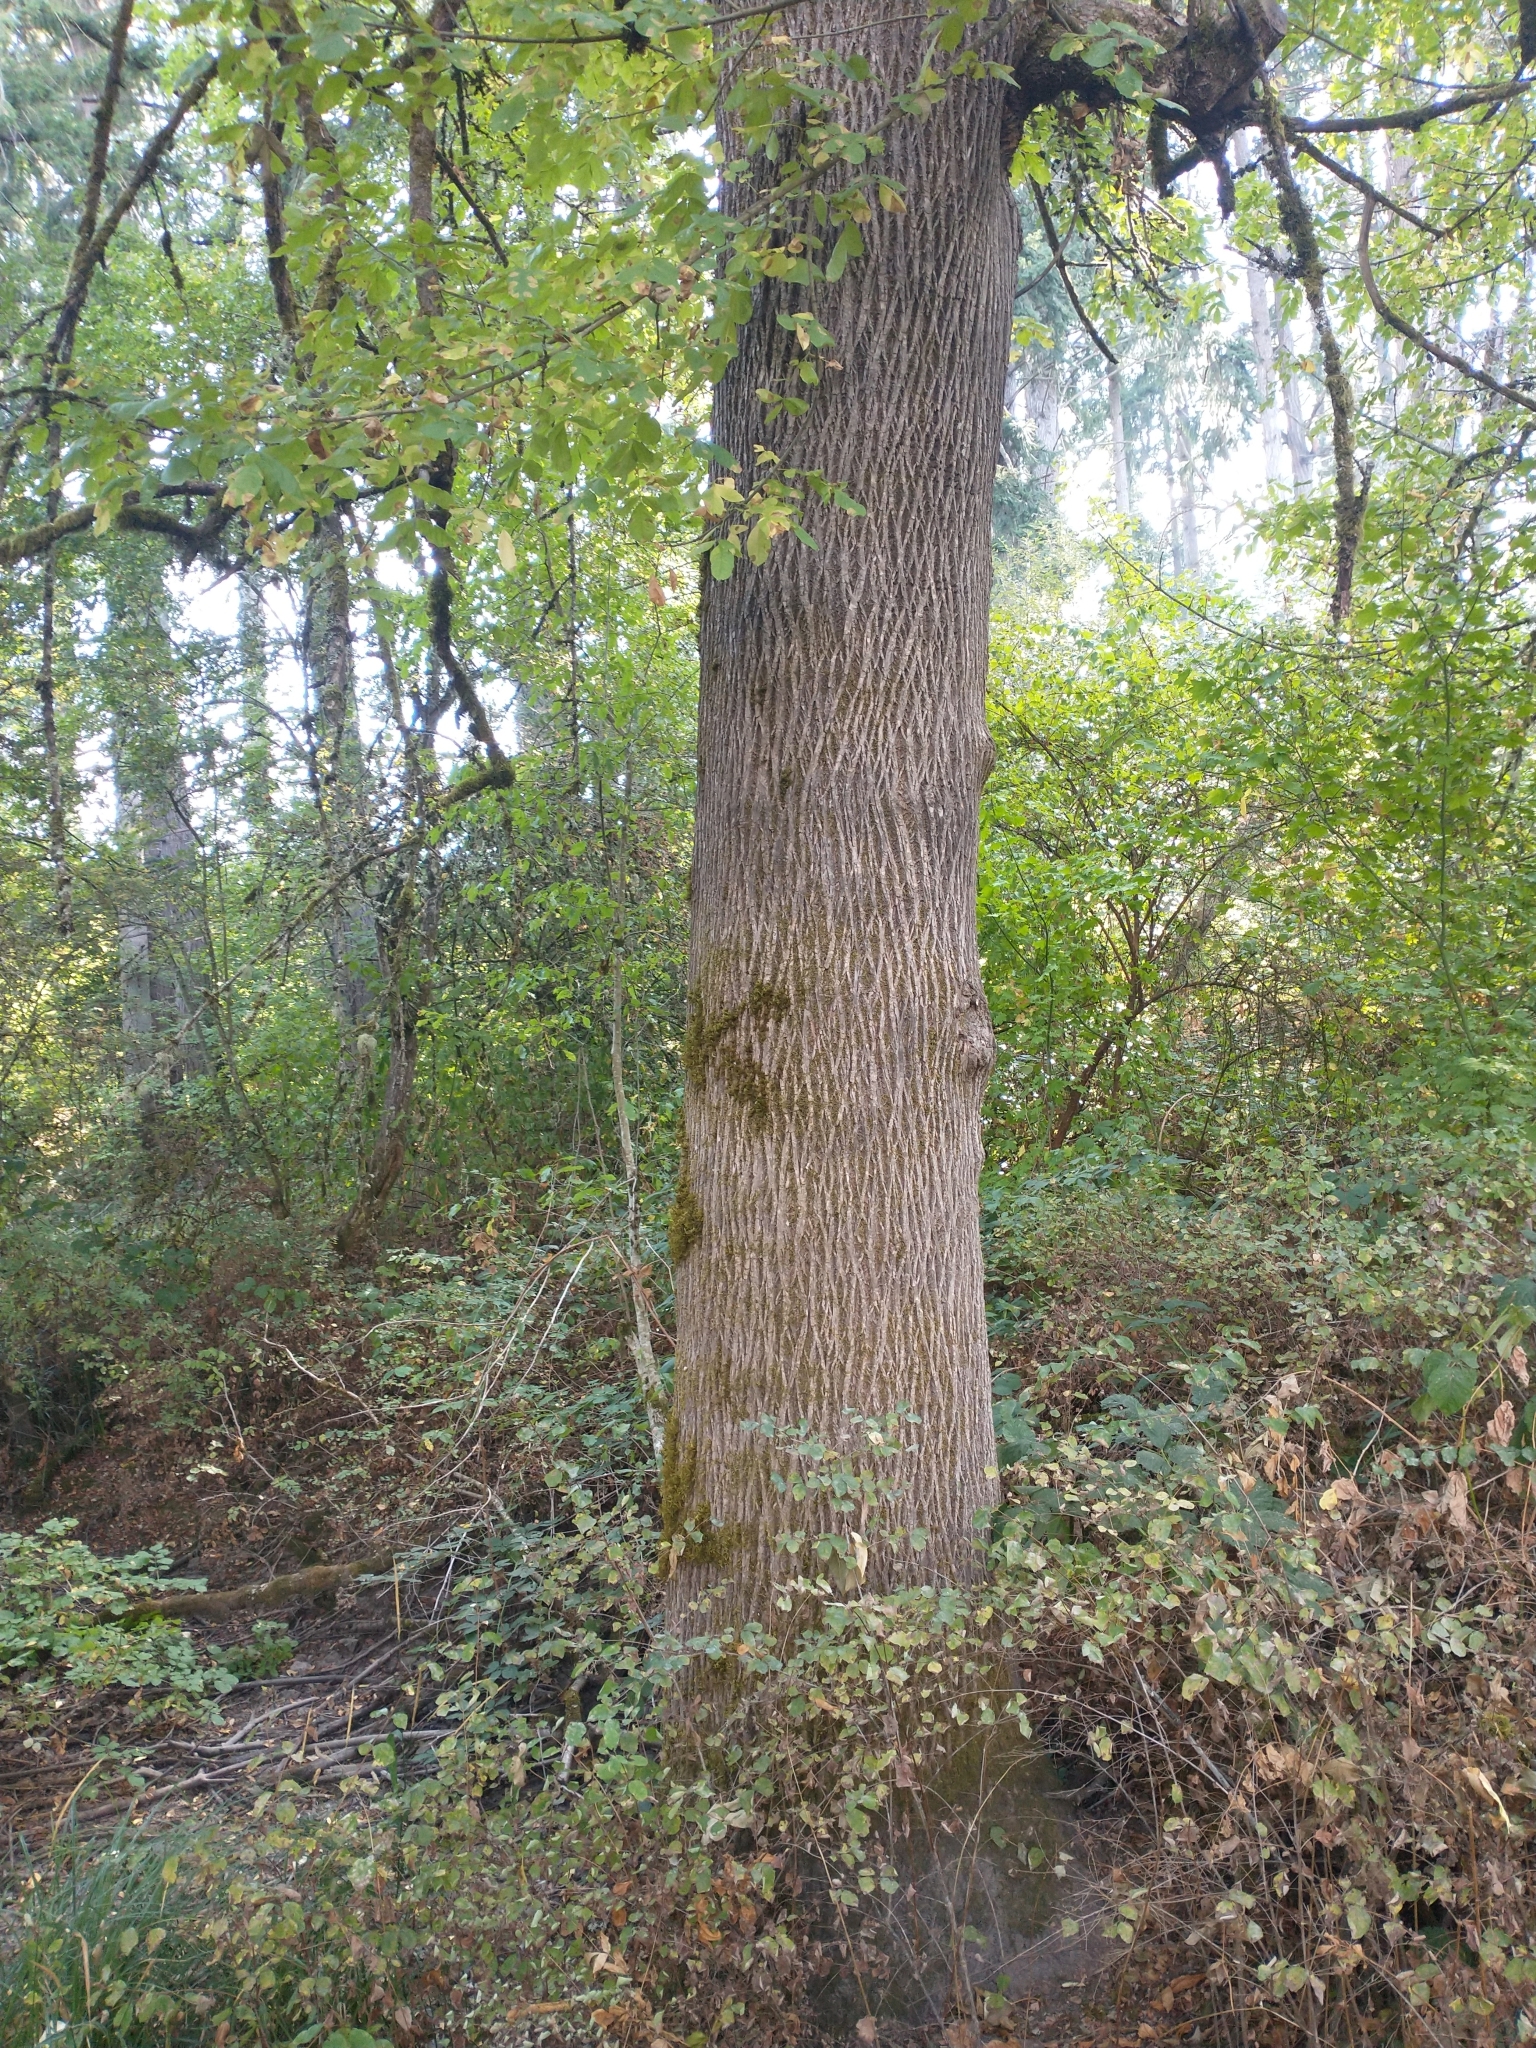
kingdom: Plantae
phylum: Tracheophyta
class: Magnoliopsida
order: Lamiales
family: Oleaceae
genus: Fraxinus
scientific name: Fraxinus latifolia
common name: Oregon ash
